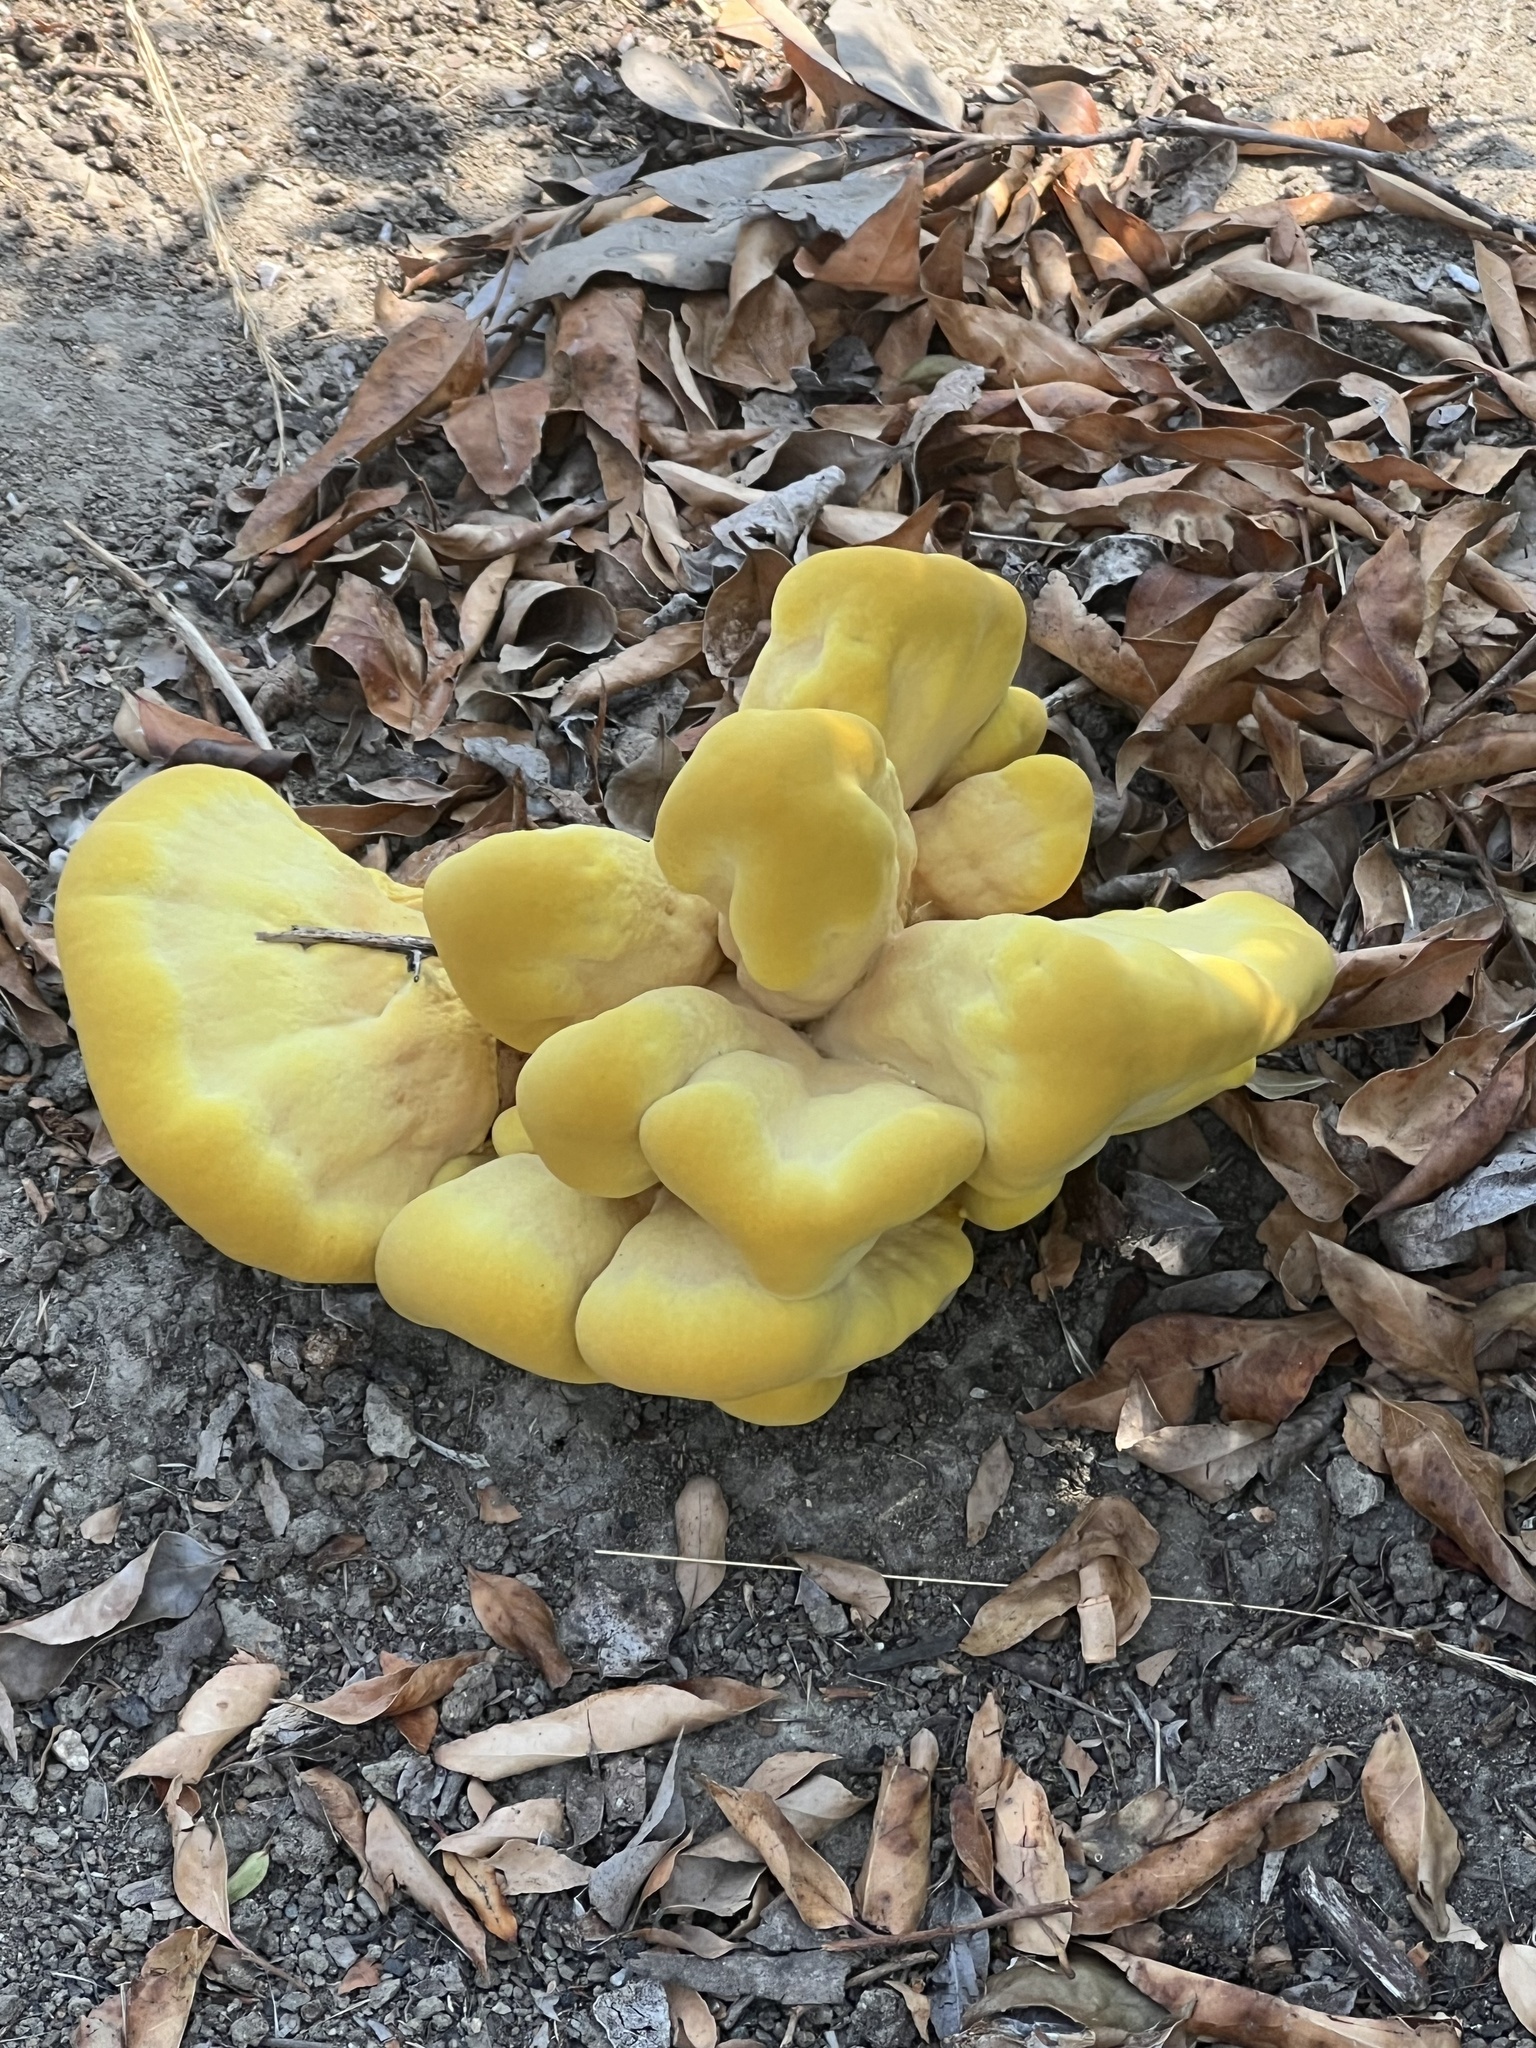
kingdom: Fungi
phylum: Basidiomycota
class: Agaricomycetes
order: Polyporales
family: Laetiporaceae
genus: Laetiporus
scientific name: Laetiporus gilbertsonii
